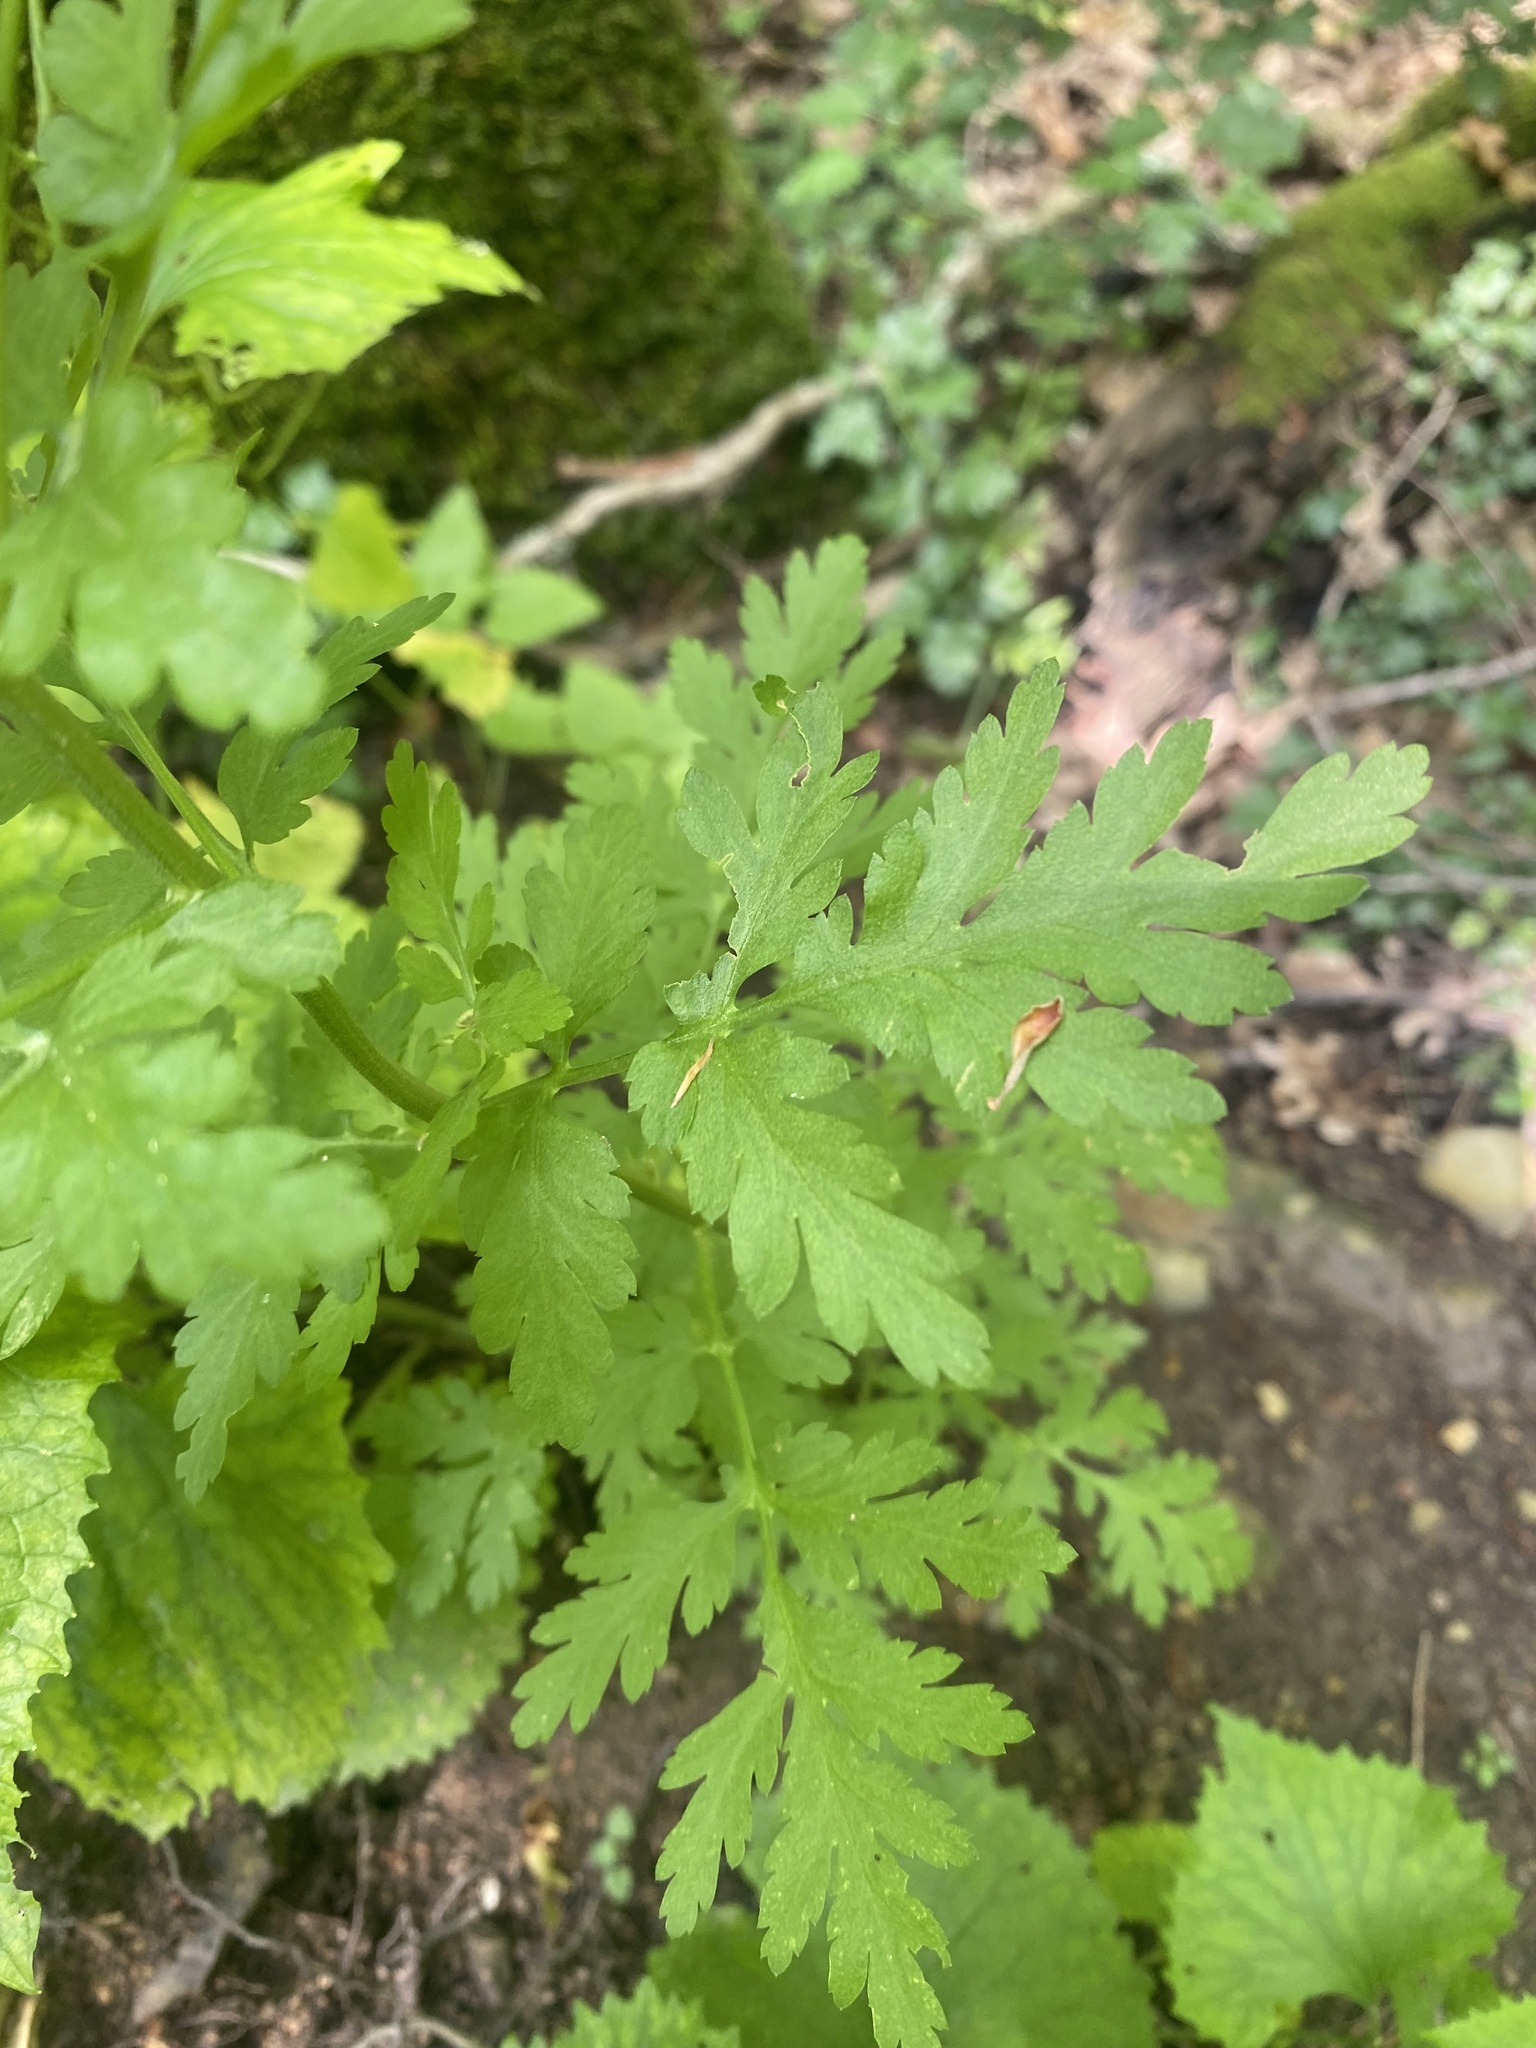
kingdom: Plantae
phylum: Tracheophyta
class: Magnoliopsida
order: Asterales
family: Asteraceae
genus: Tanacetum
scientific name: Tanacetum partheniifolium
